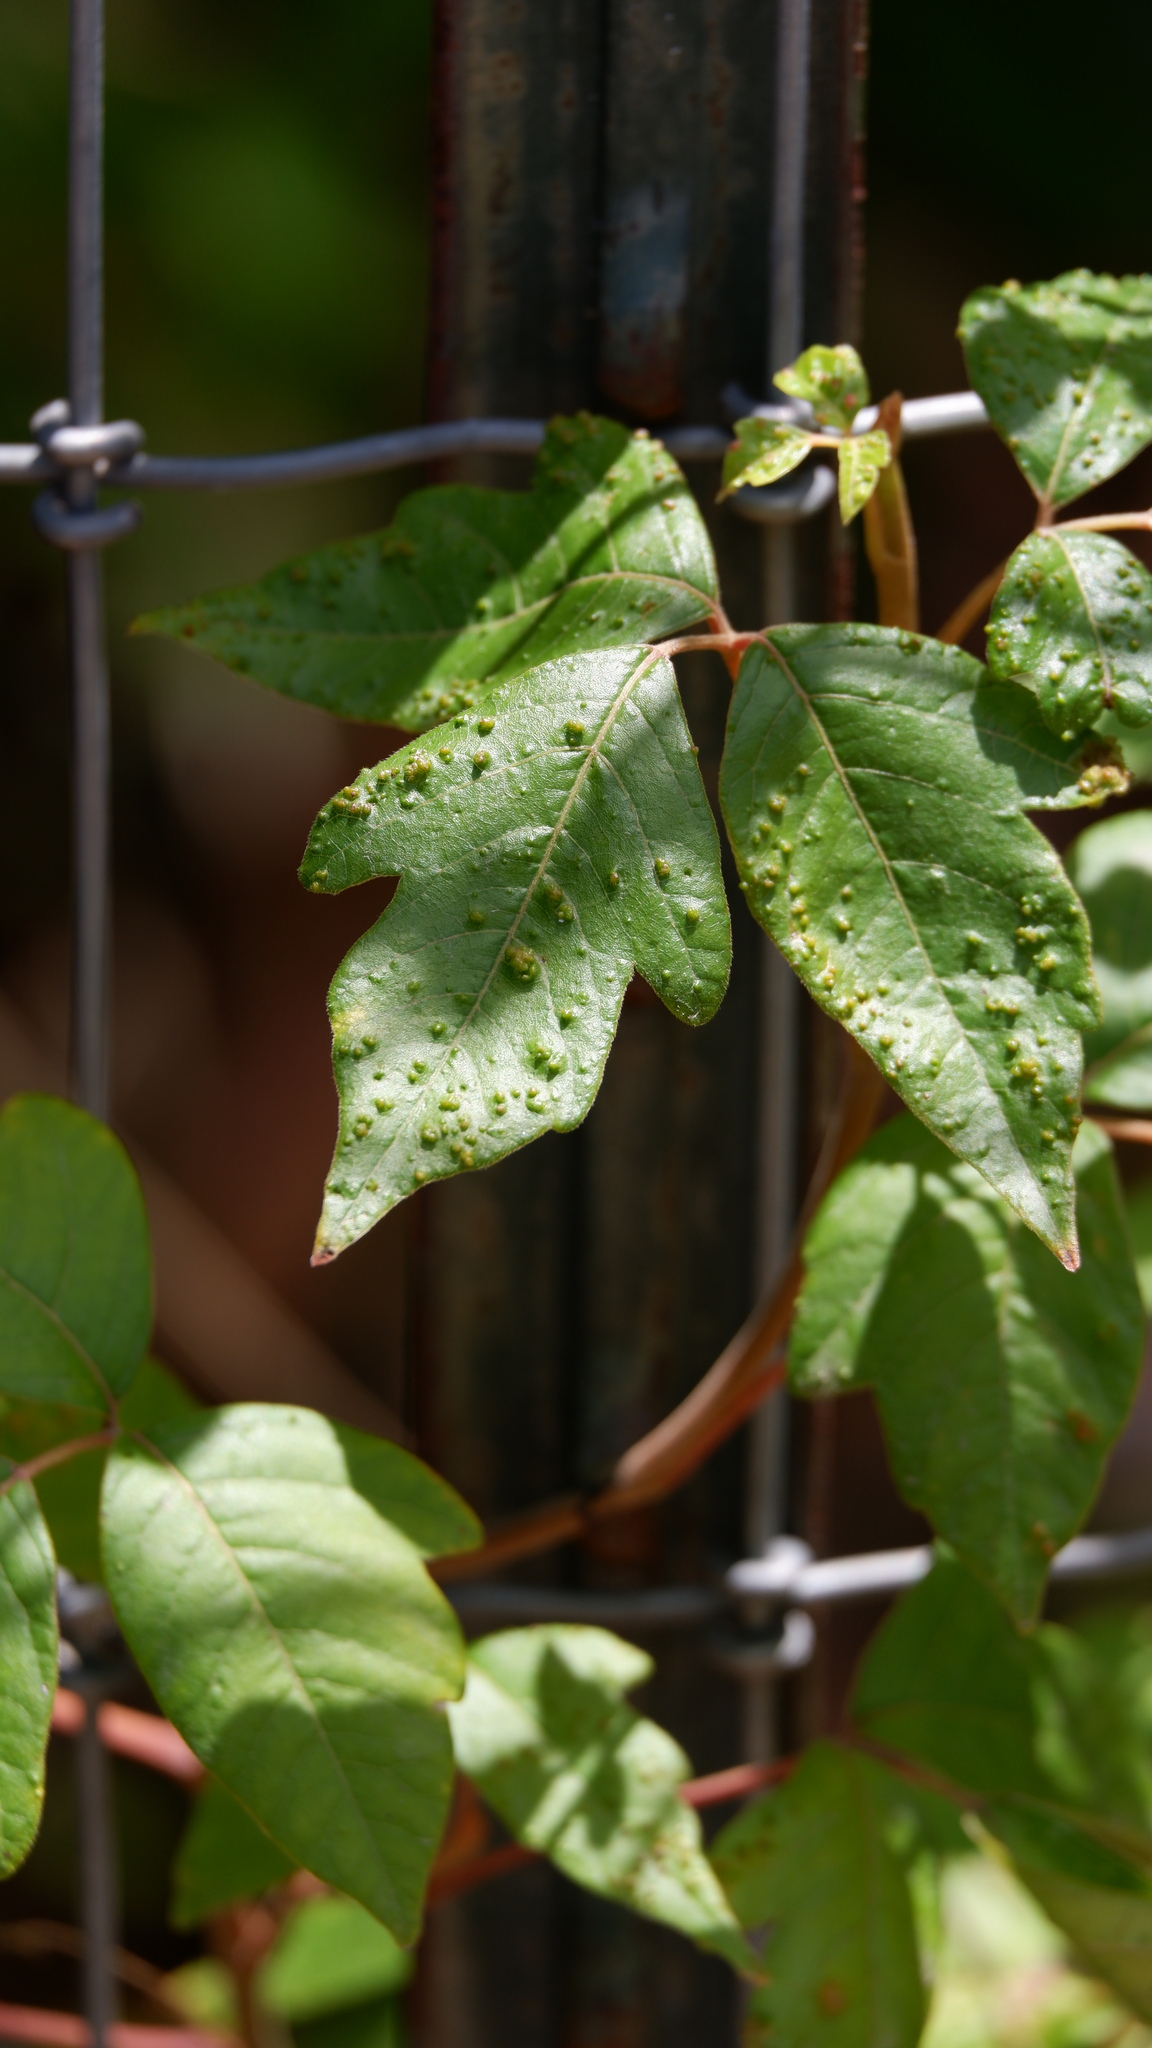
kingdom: Animalia
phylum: Arthropoda
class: Arachnida
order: Trombidiformes
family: Eriophyidae
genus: Aculops
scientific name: Aculops
